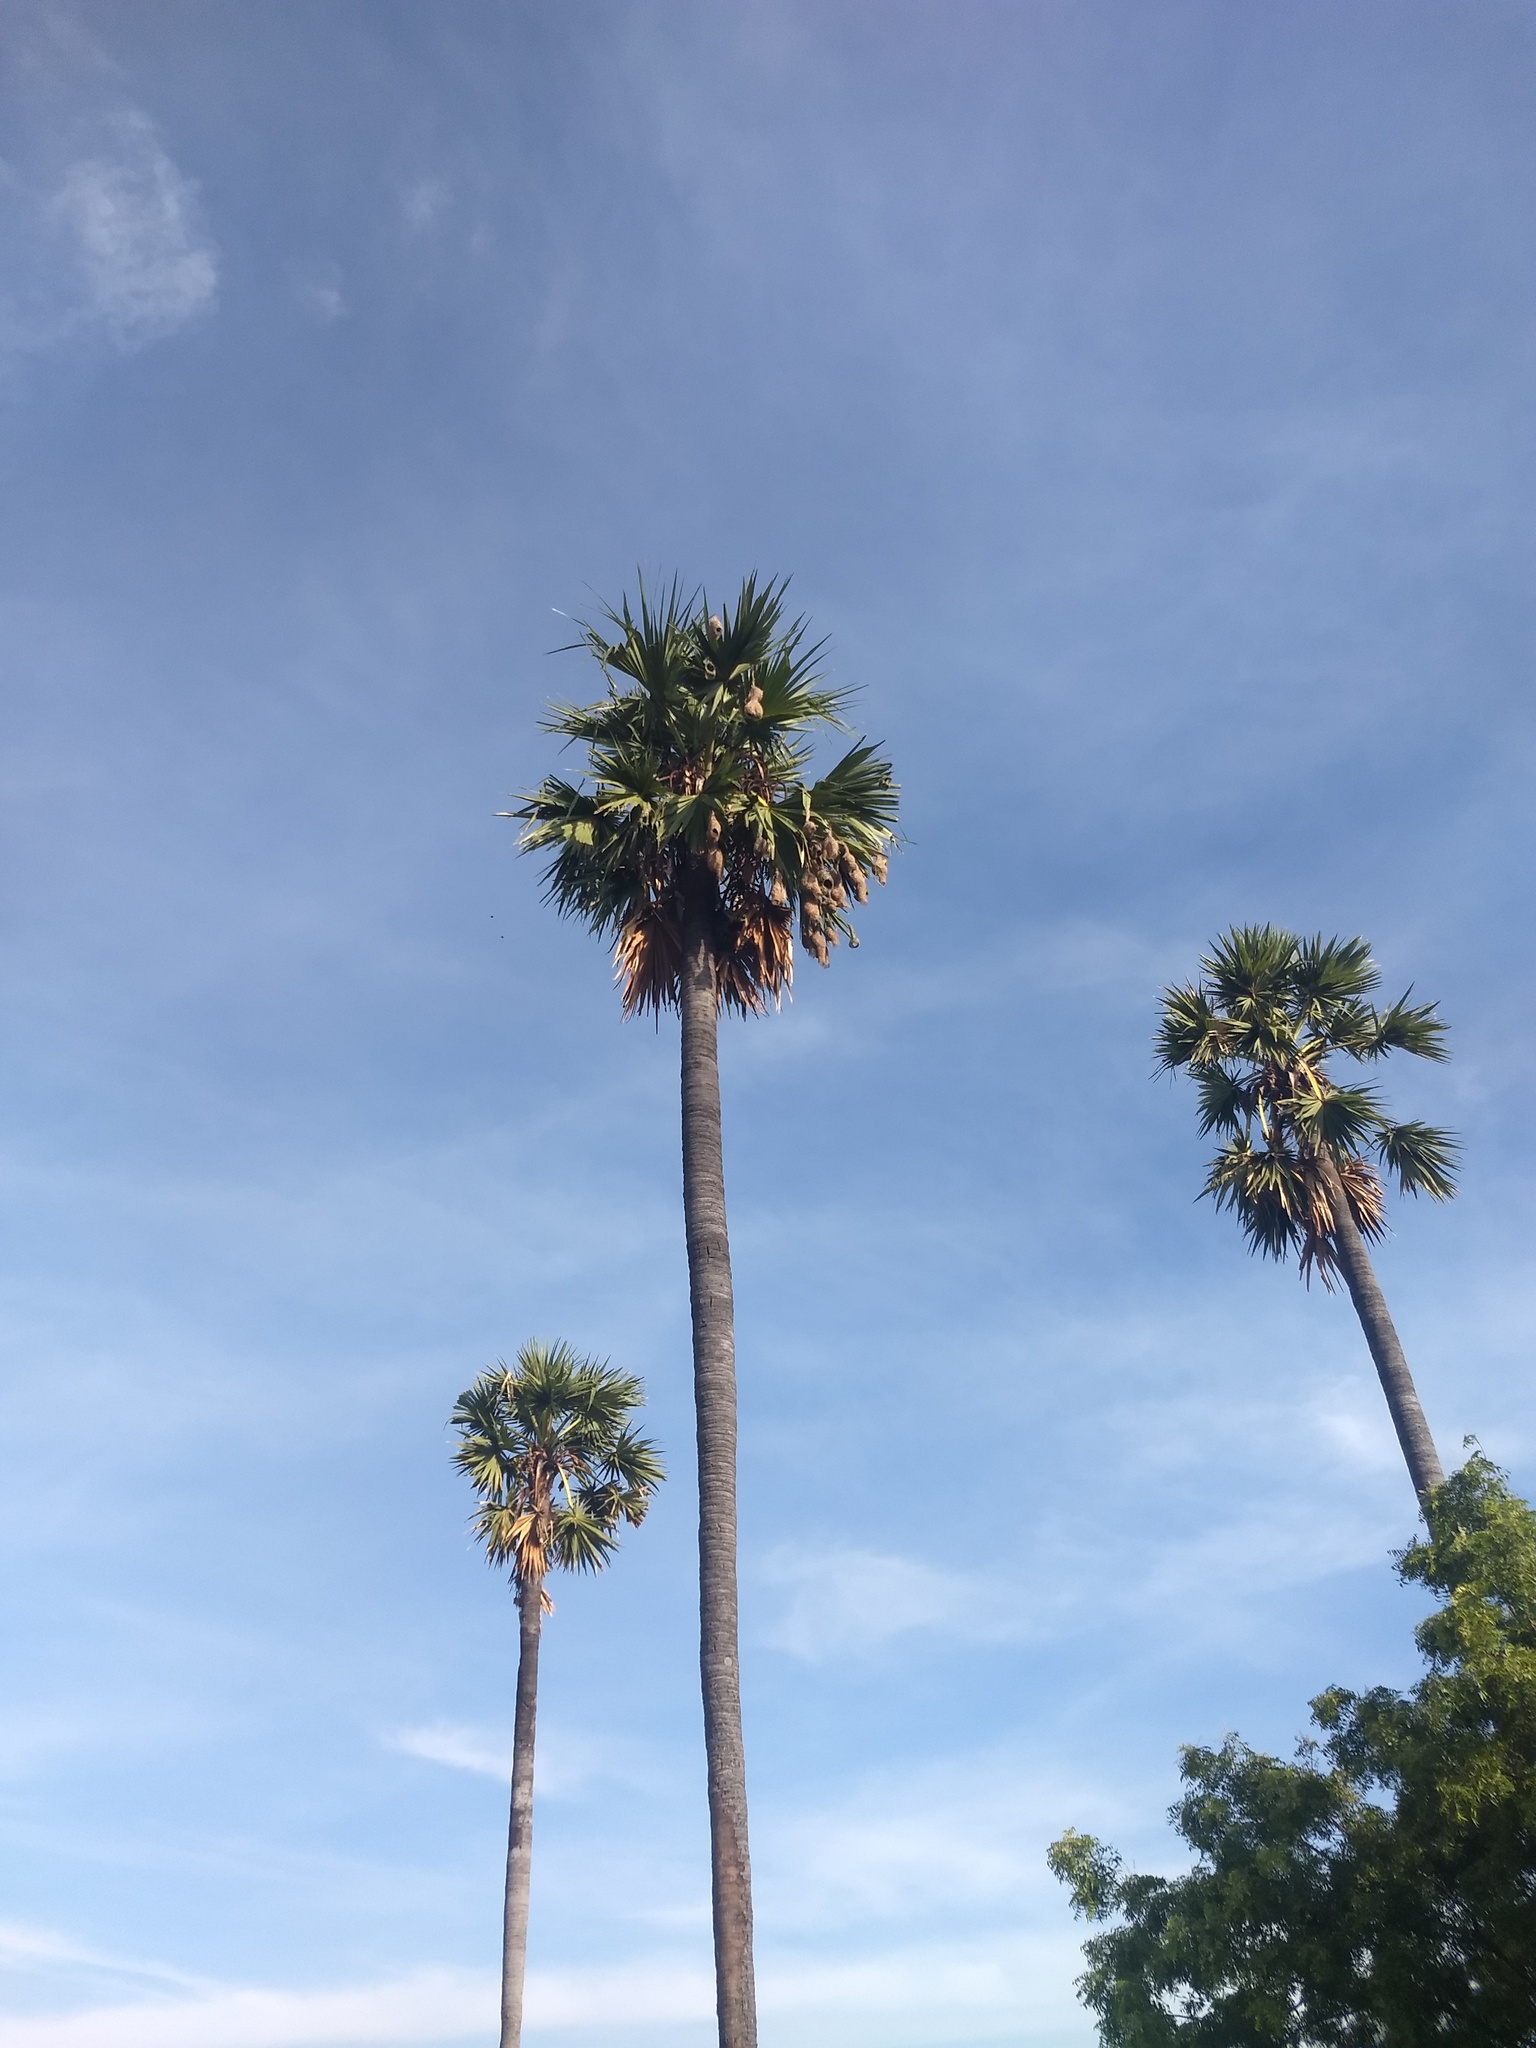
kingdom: Plantae
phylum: Tracheophyta
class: Liliopsida
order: Arecales
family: Arecaceae
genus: Borassus
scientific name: Borassus flabellifer
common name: Palmyra palm
